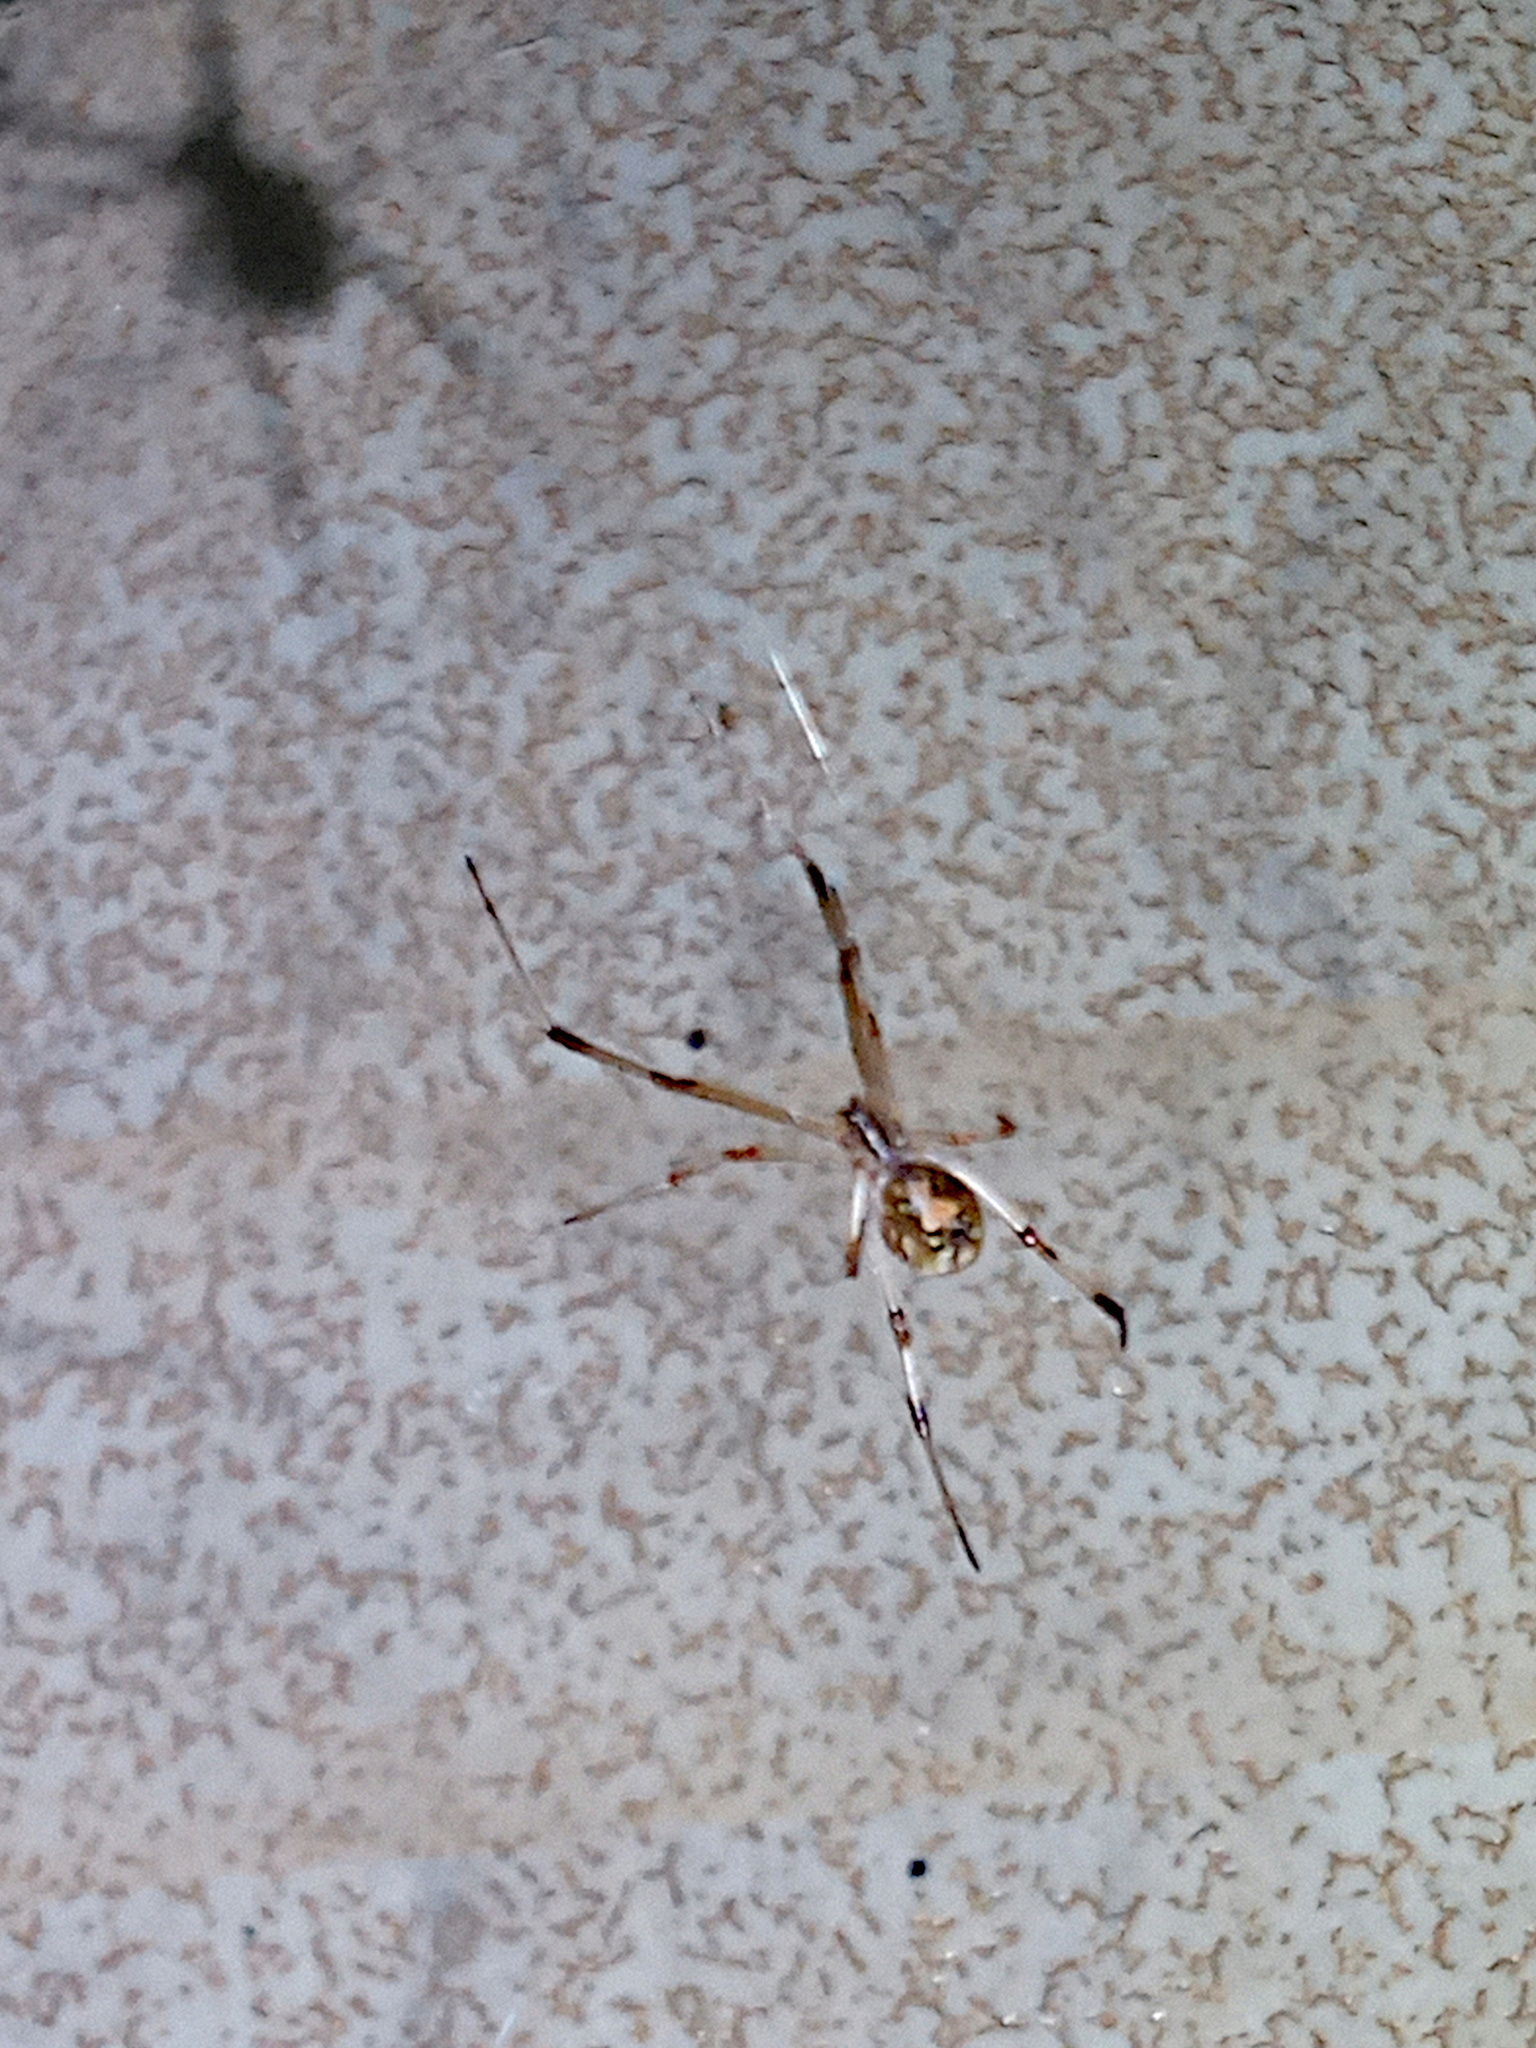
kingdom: Animalia
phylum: Arthropoda
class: Arachnida
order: Araneae
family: Theridiidae
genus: Latrodectus
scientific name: Latrodectus geometricus
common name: Brown widow spider
